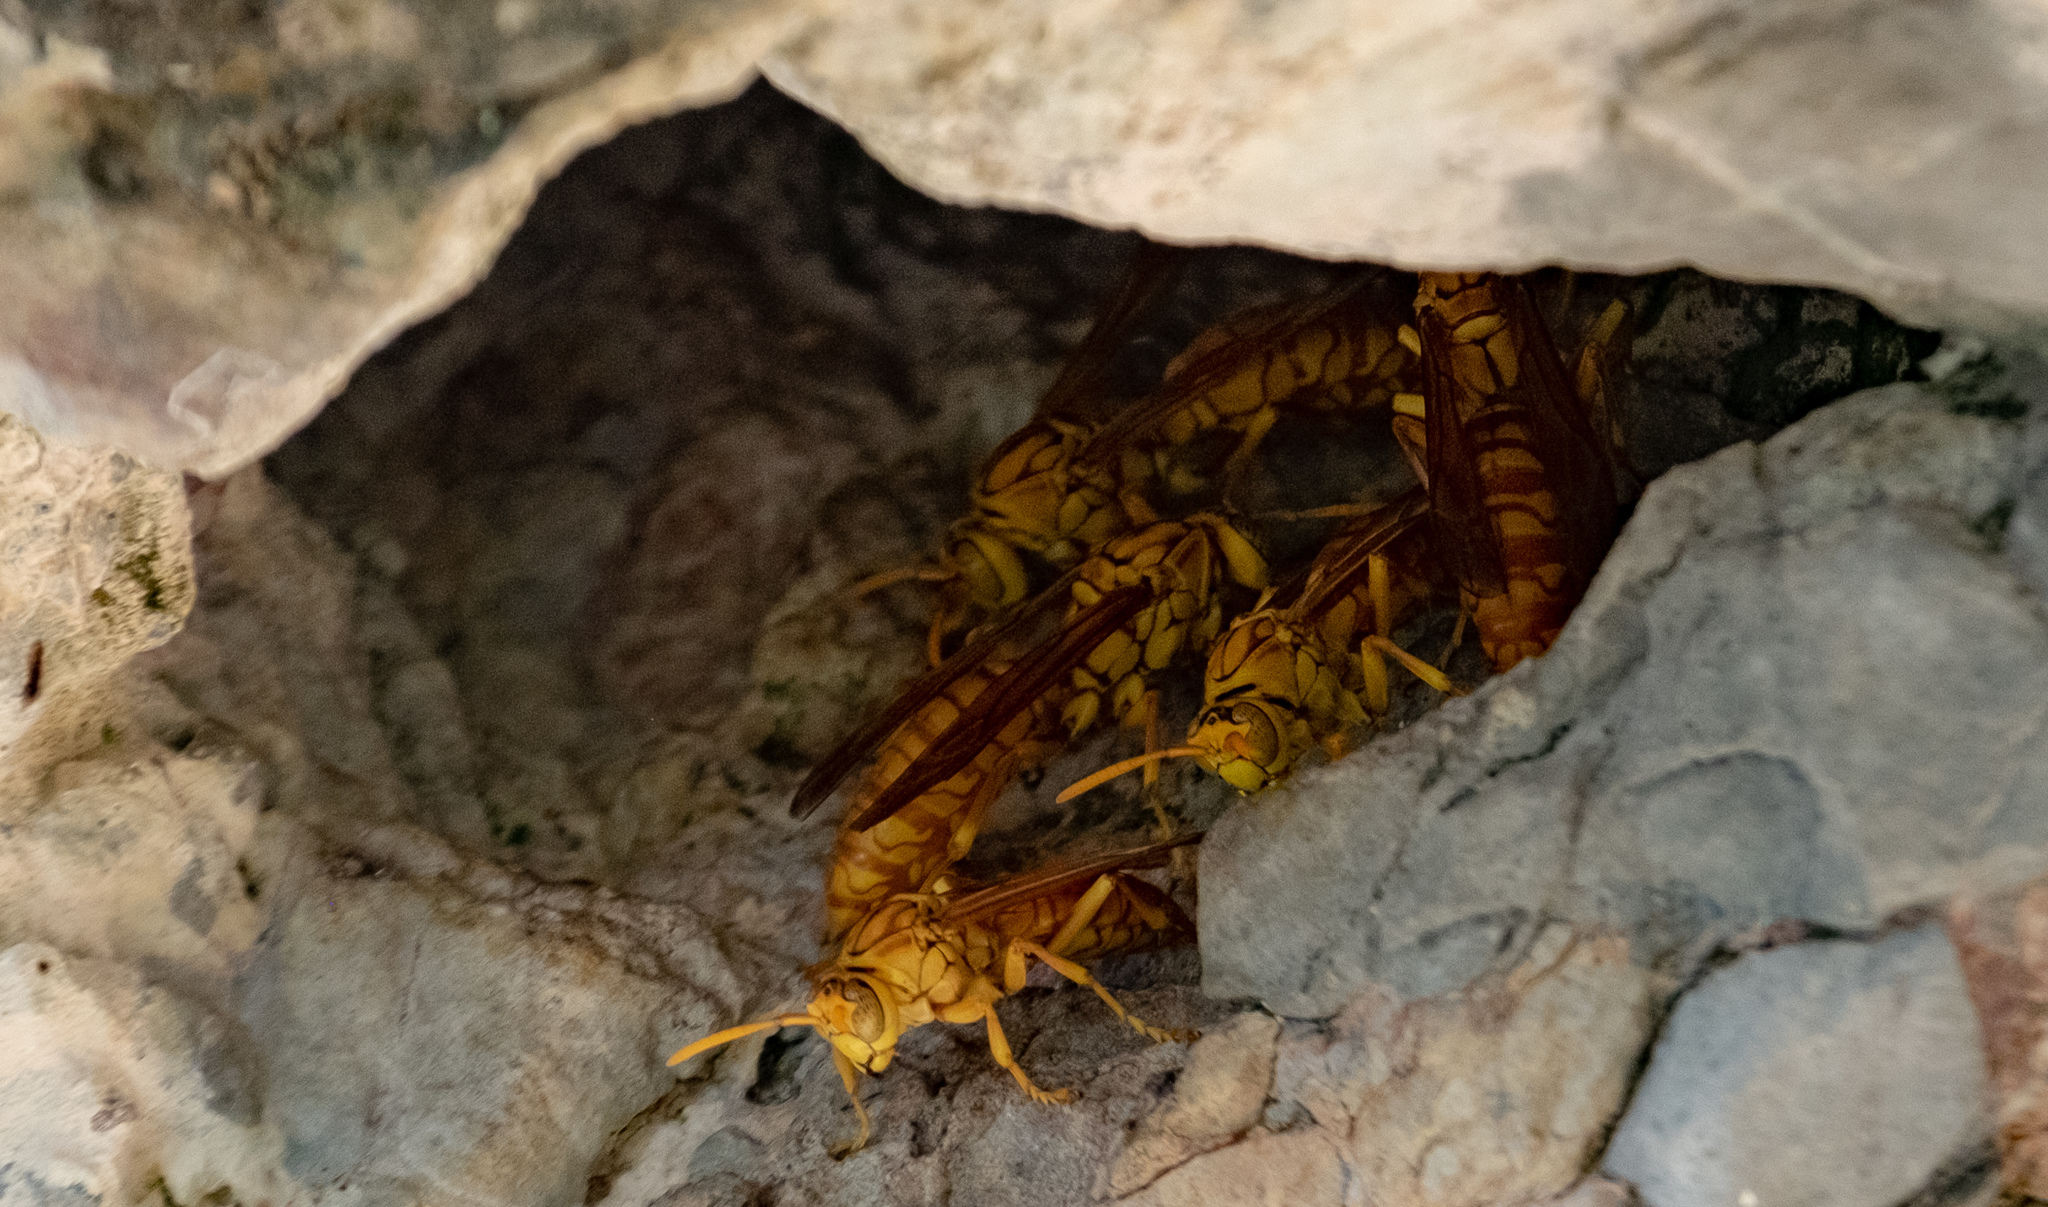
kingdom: Animalia
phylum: Arthropoda
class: Insecta
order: Hymenoptera
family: Eumenidae
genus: Polistes
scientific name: Polistes olivaceus
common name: Paper wasp
